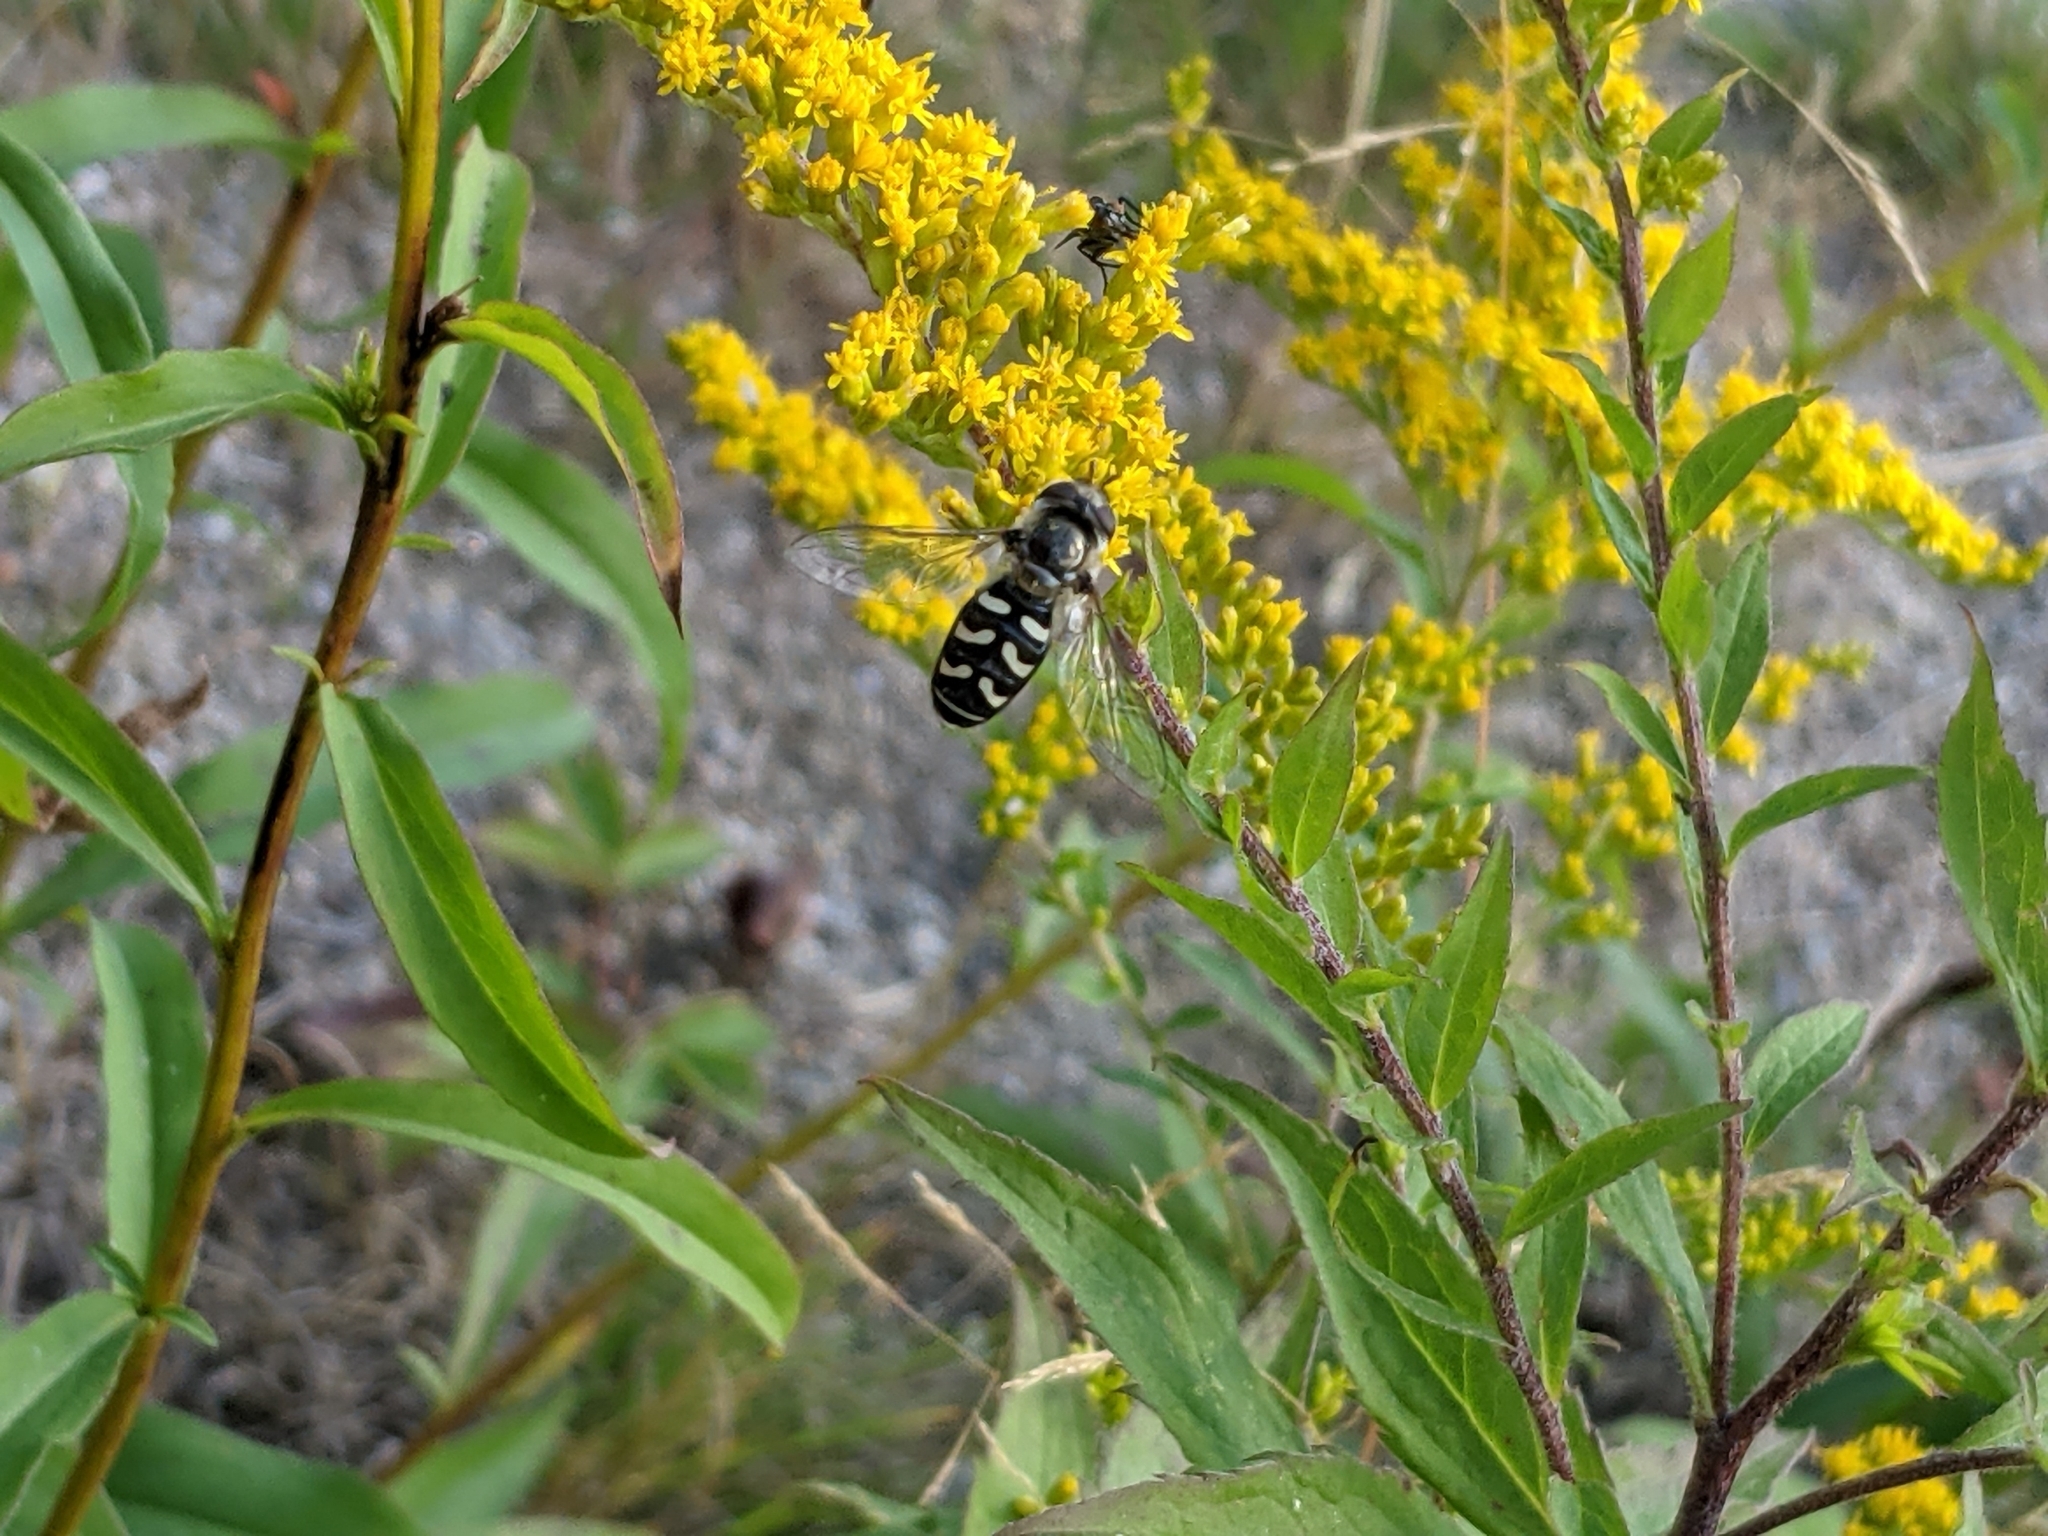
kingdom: Animalia
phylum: Arthropoda
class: Insecta
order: Diptera
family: Syrphidae
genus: Scaeva
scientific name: Scaeva affinis
